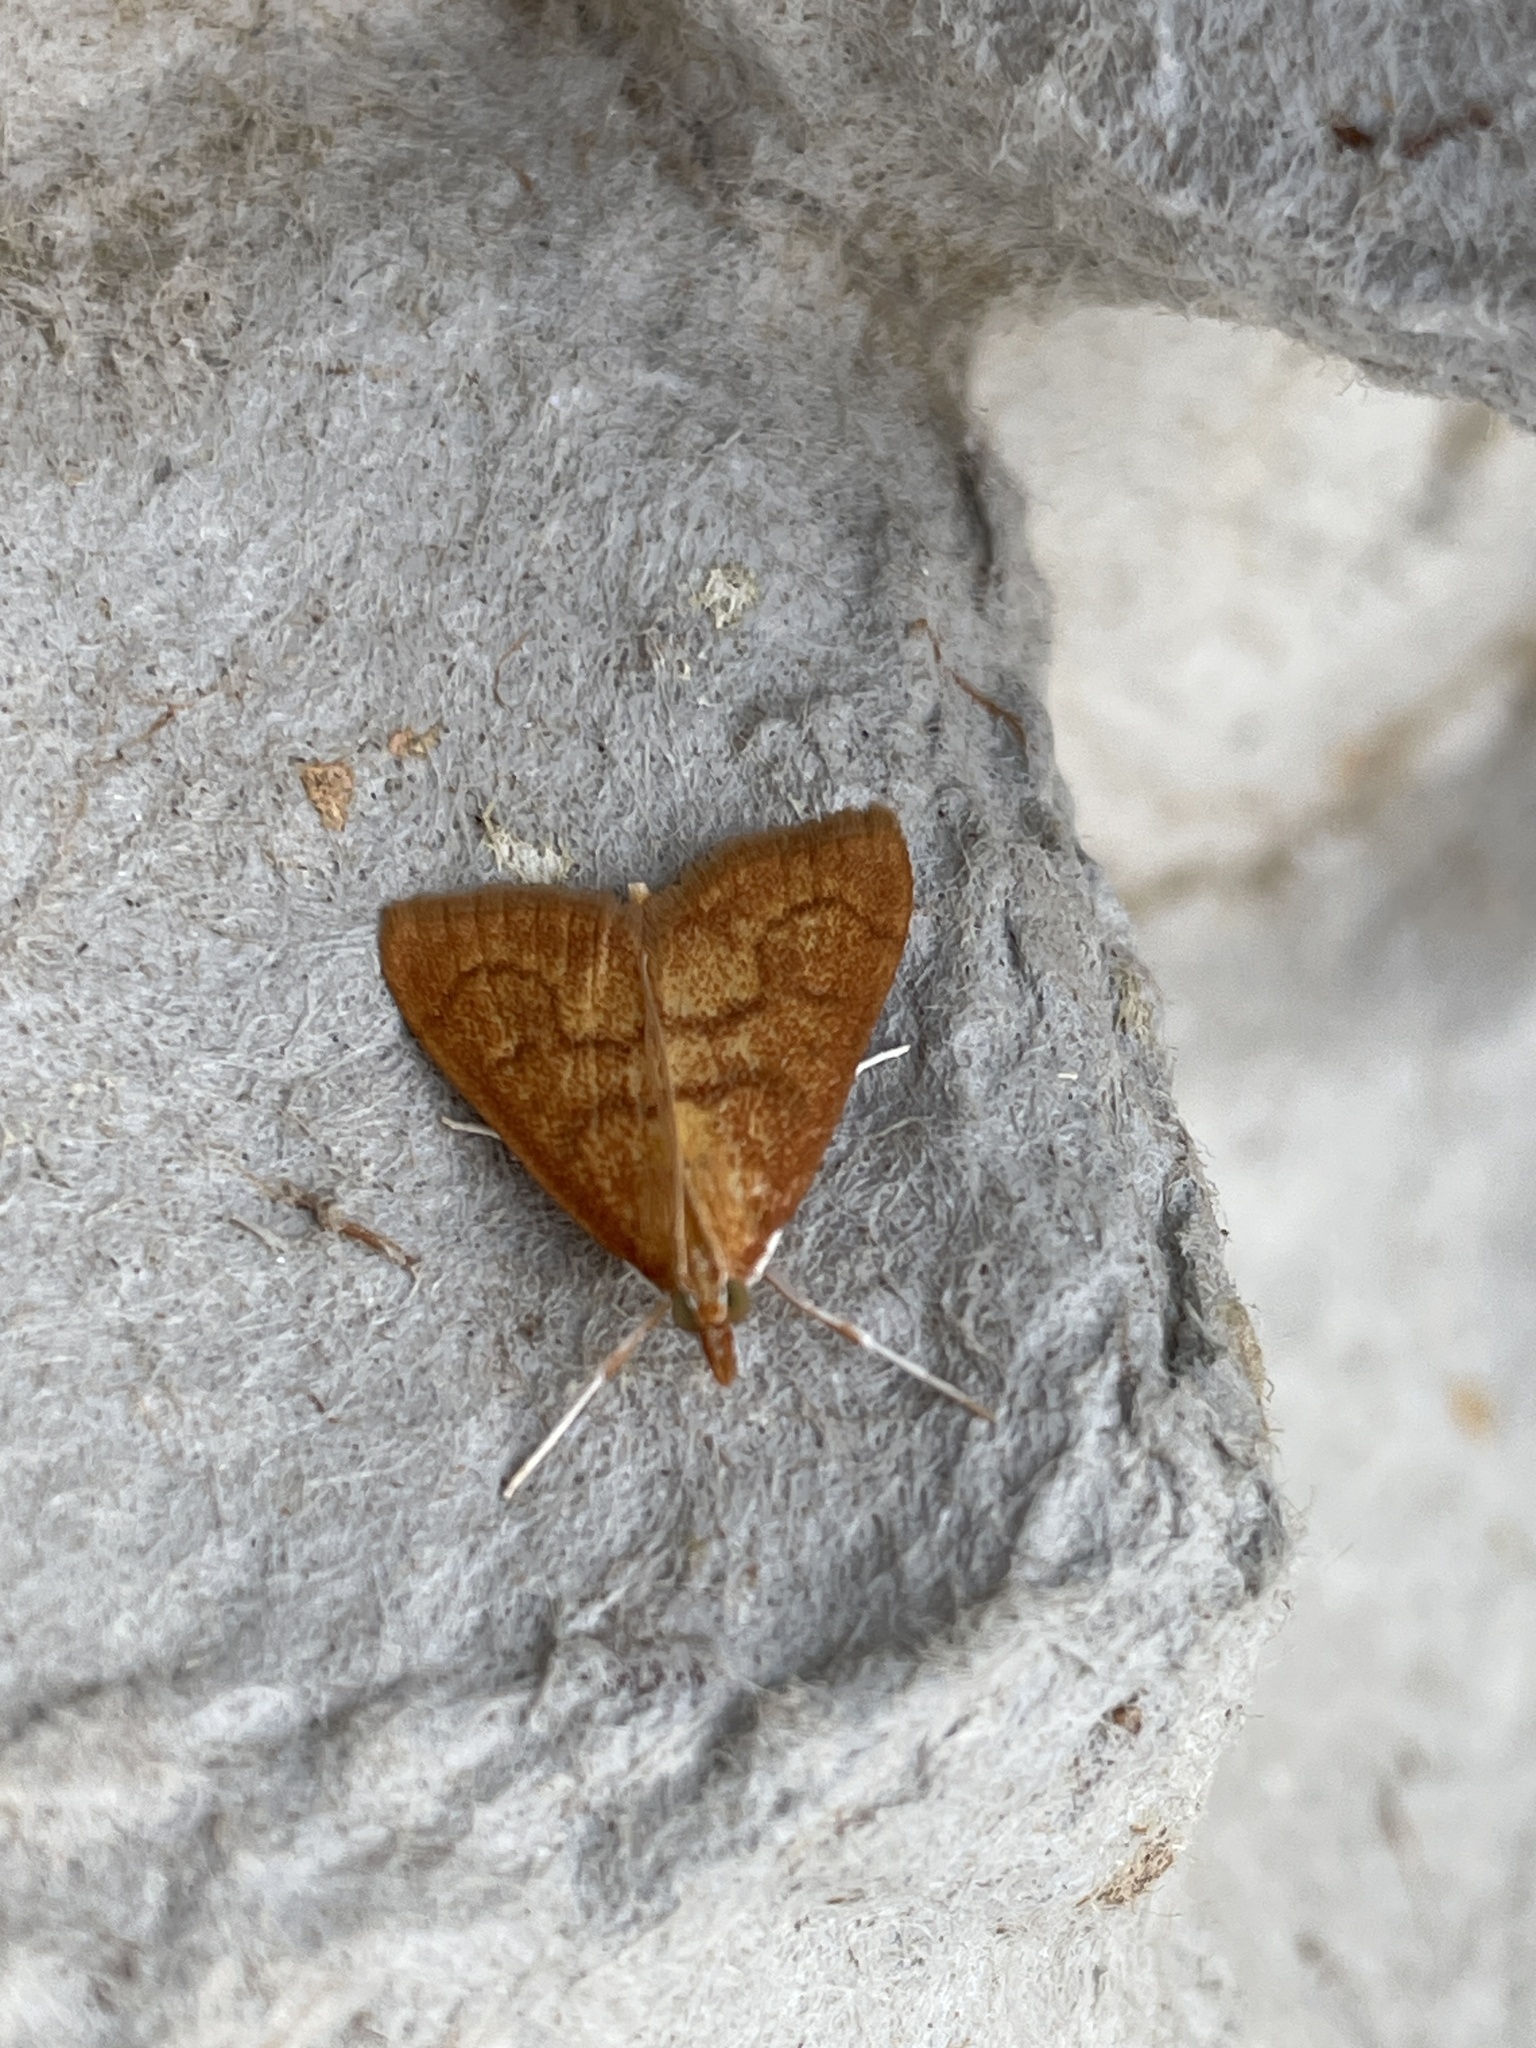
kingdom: Animalia
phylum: Arthropoda
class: Insecta
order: Lepidoptera
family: Crambidae
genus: Anania
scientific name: Anania testacealis
